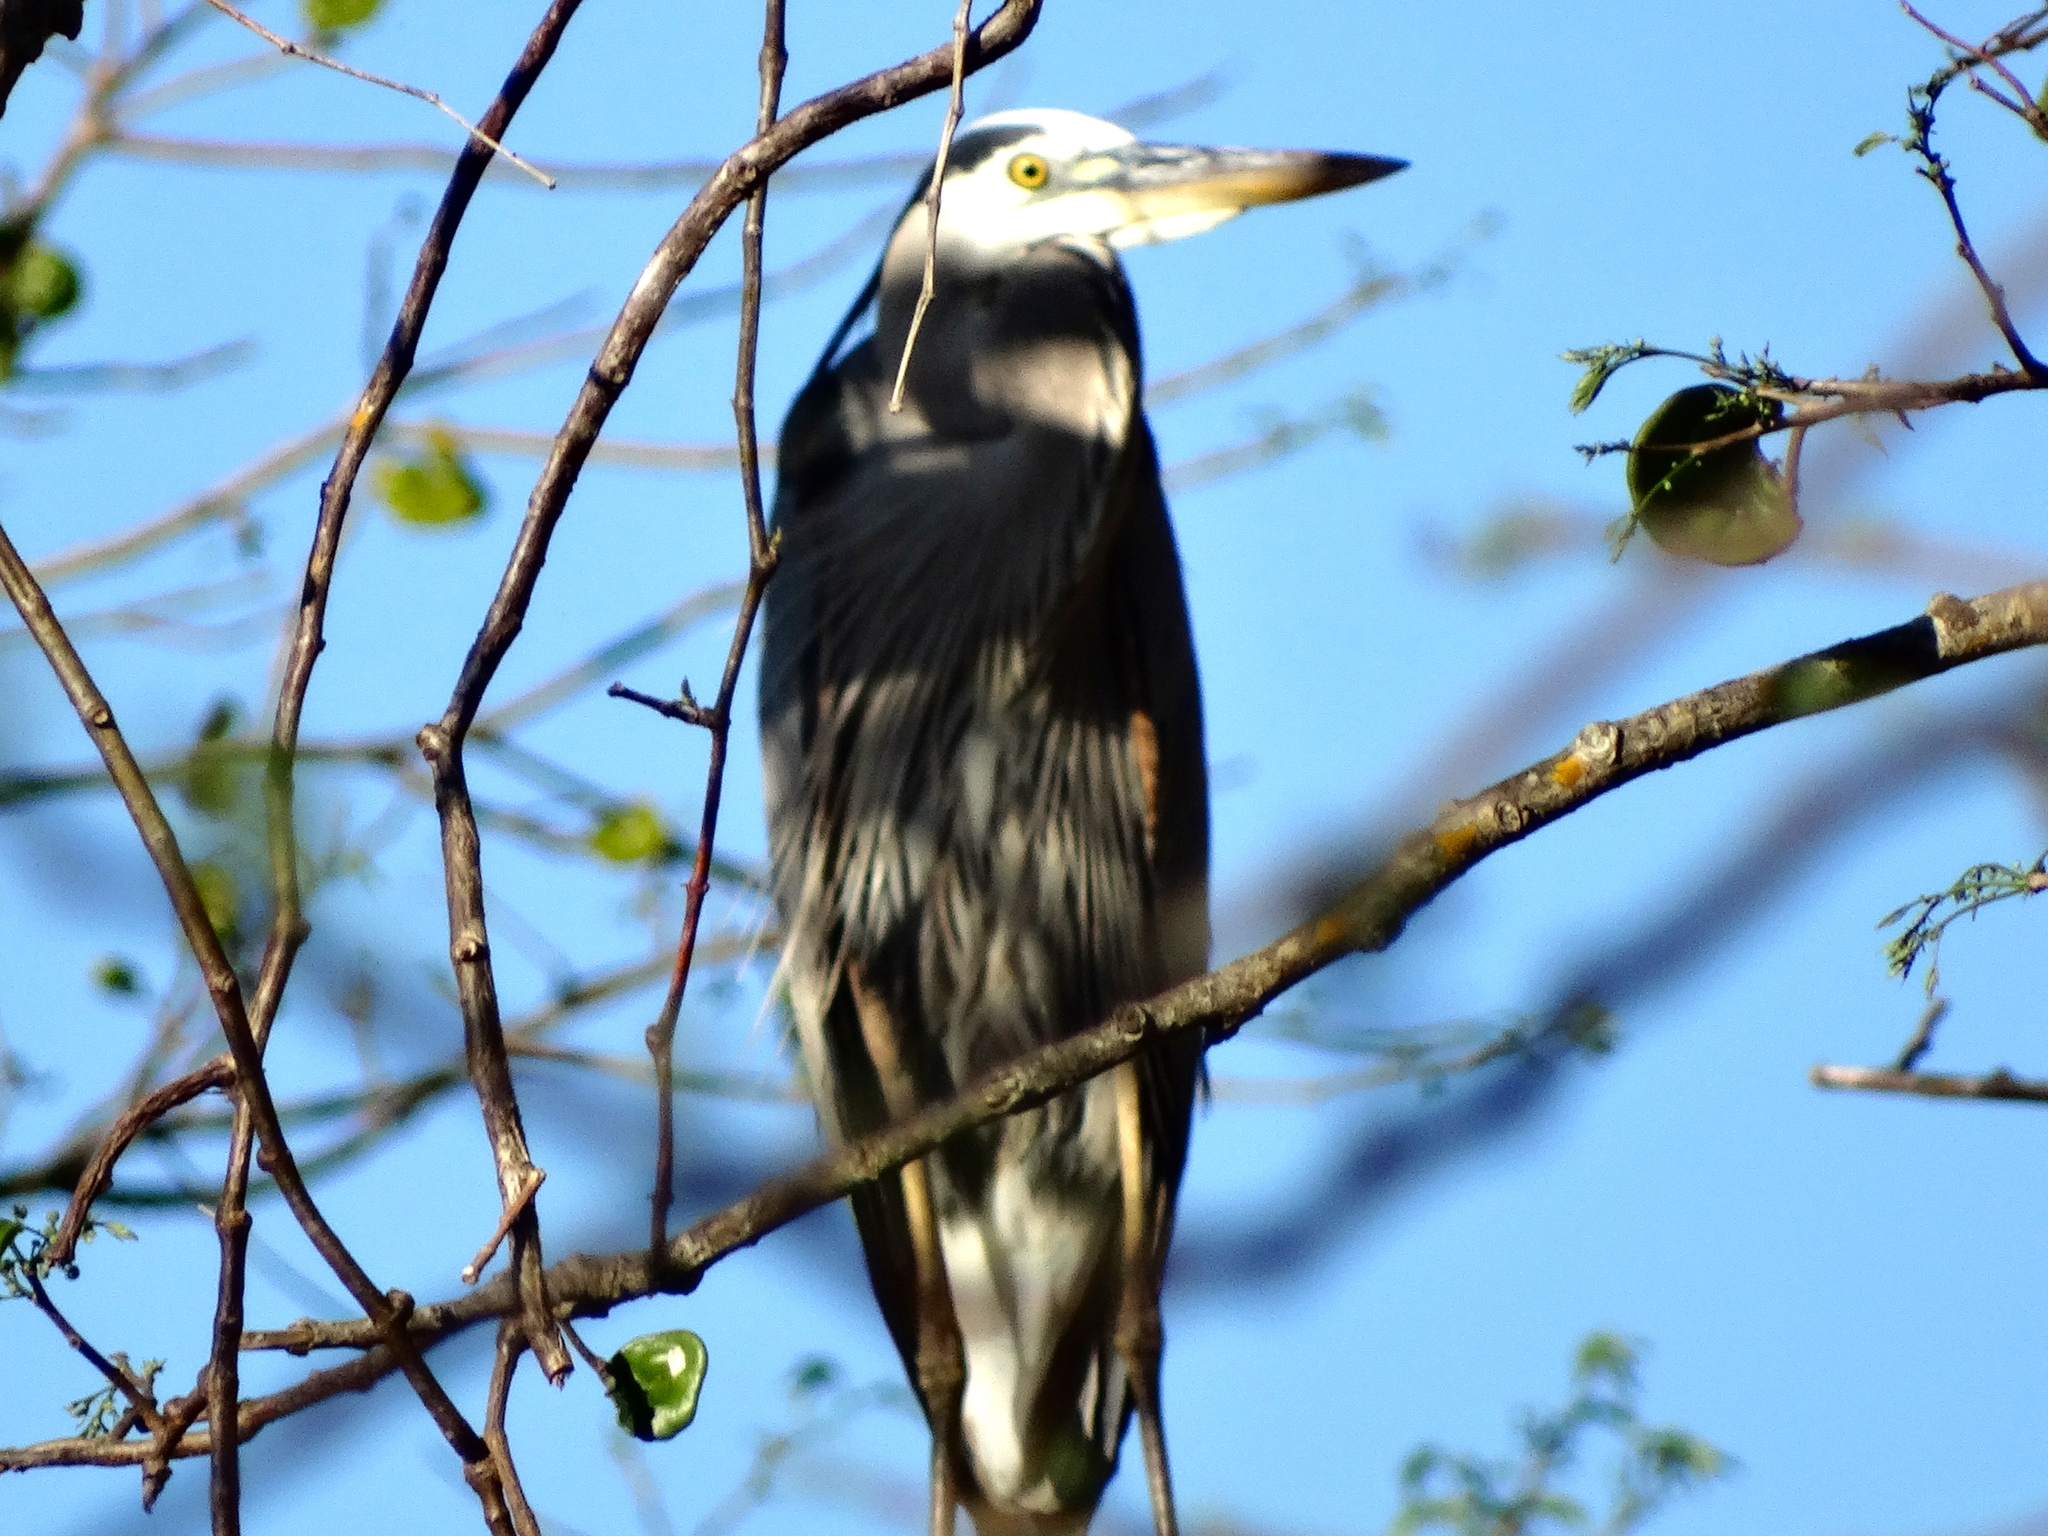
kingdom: Animalia
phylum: Chordata
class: Aves
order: Pelecaniformes
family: Ardeidae
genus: Ardea
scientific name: Ardea herodias
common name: Great blue heron
